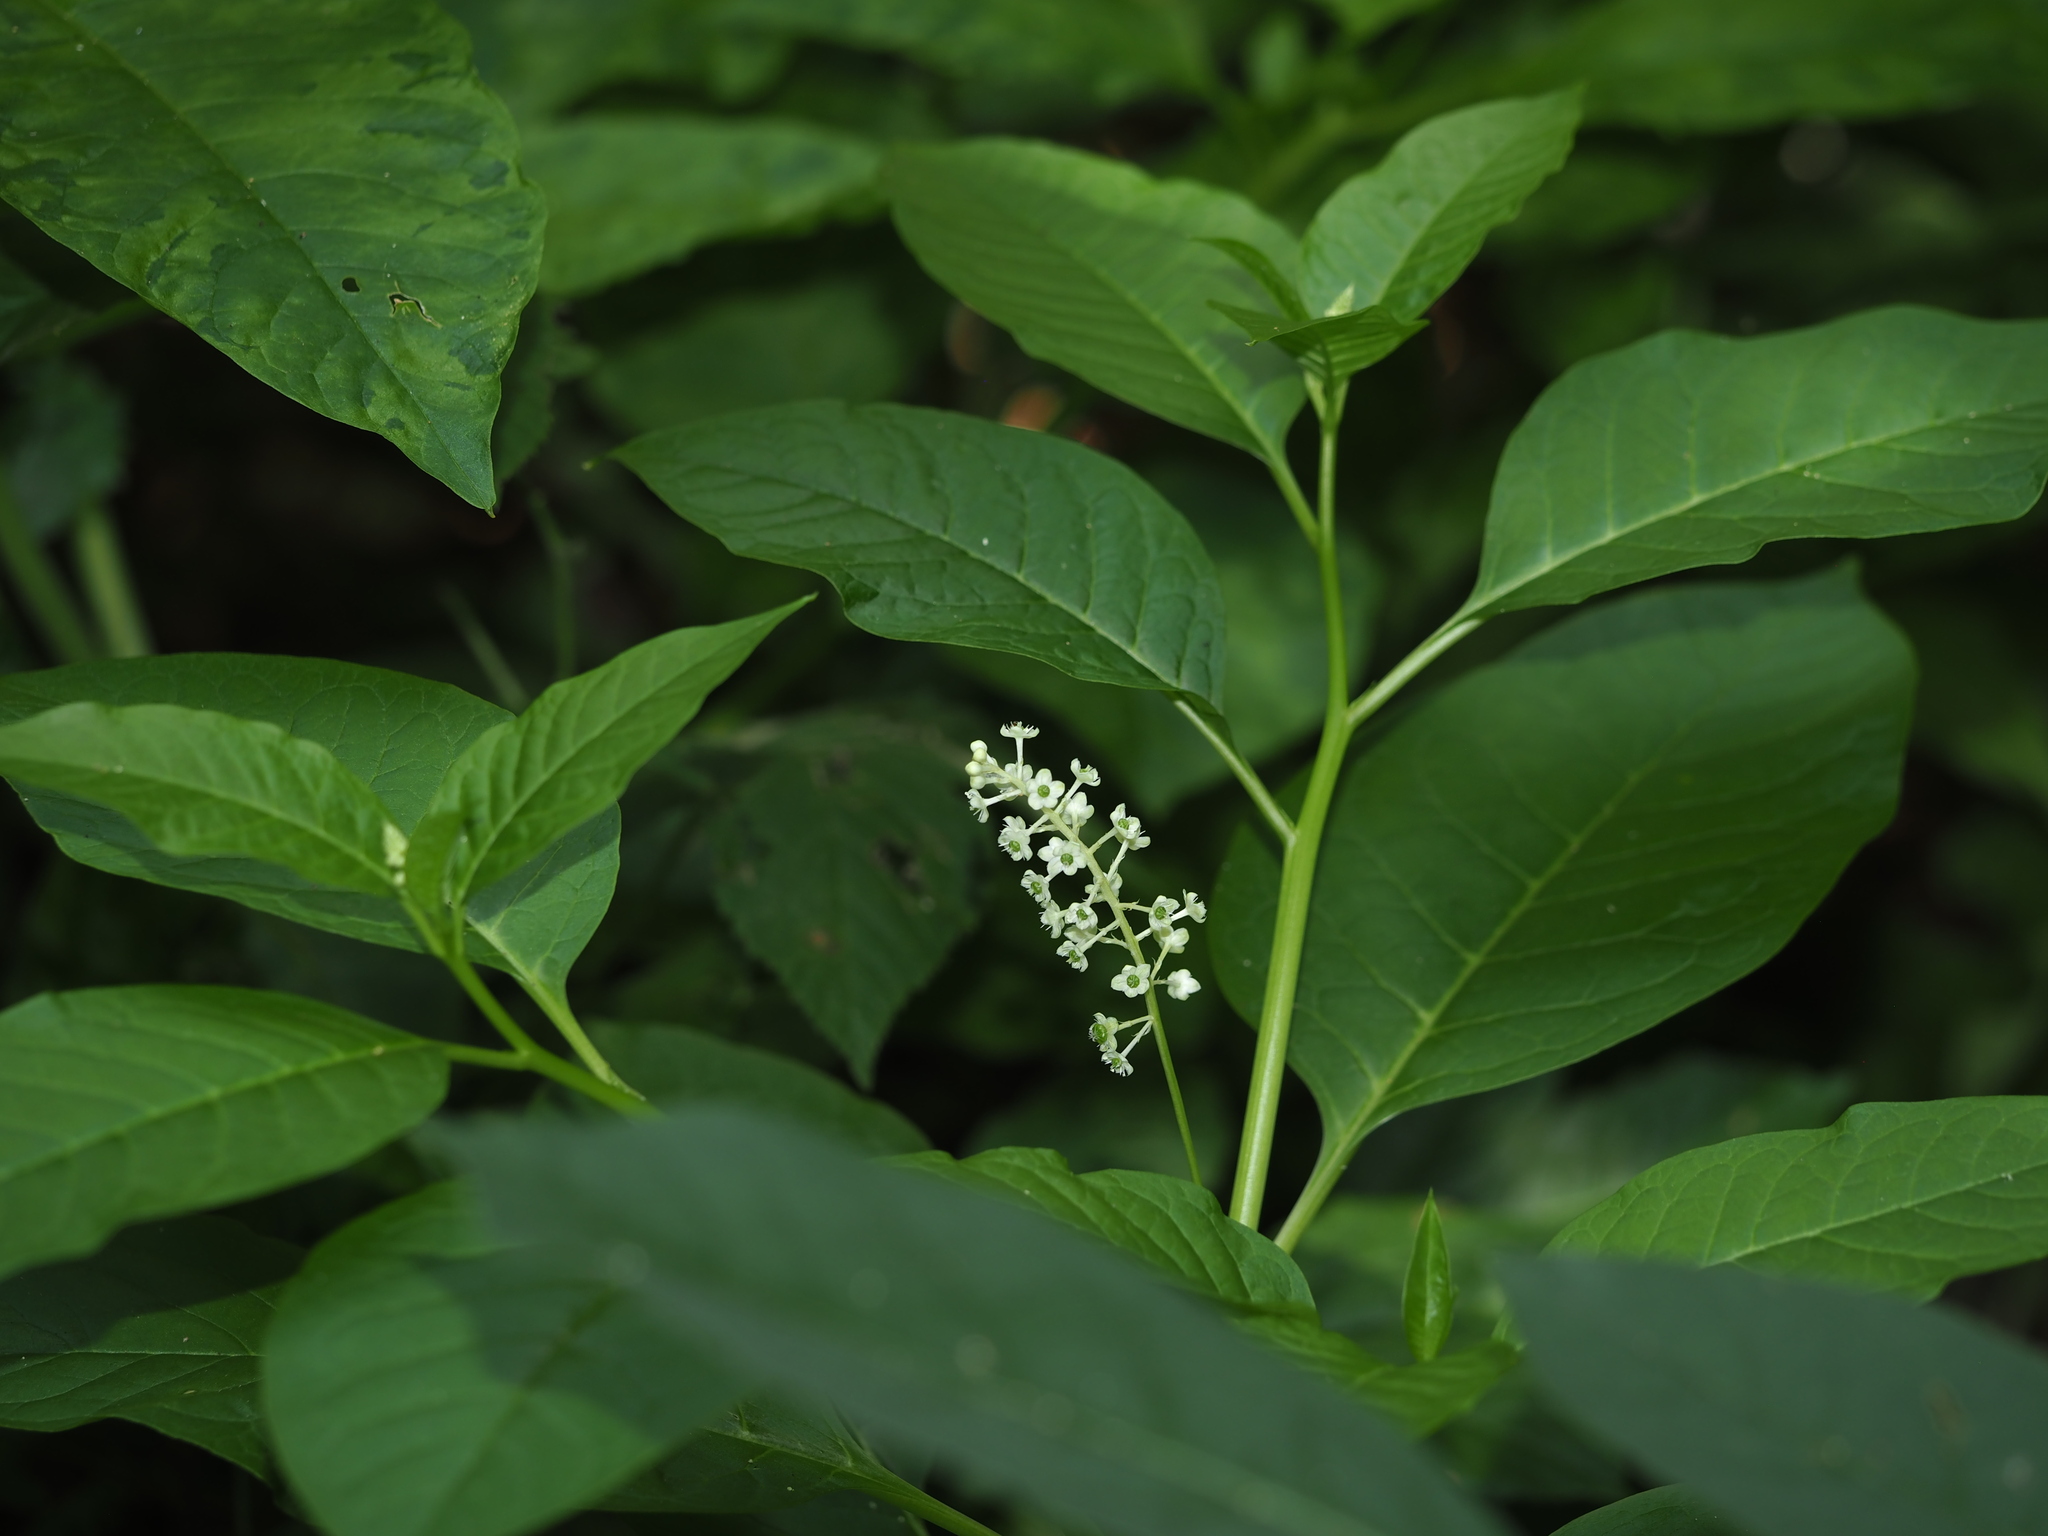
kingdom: Plantae
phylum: Tracheophyta
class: Magnoliopsida
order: Caryophyllales
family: Phytolaccaceae
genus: Phytolacca
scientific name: Phytolacca americana
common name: American pokeweed
